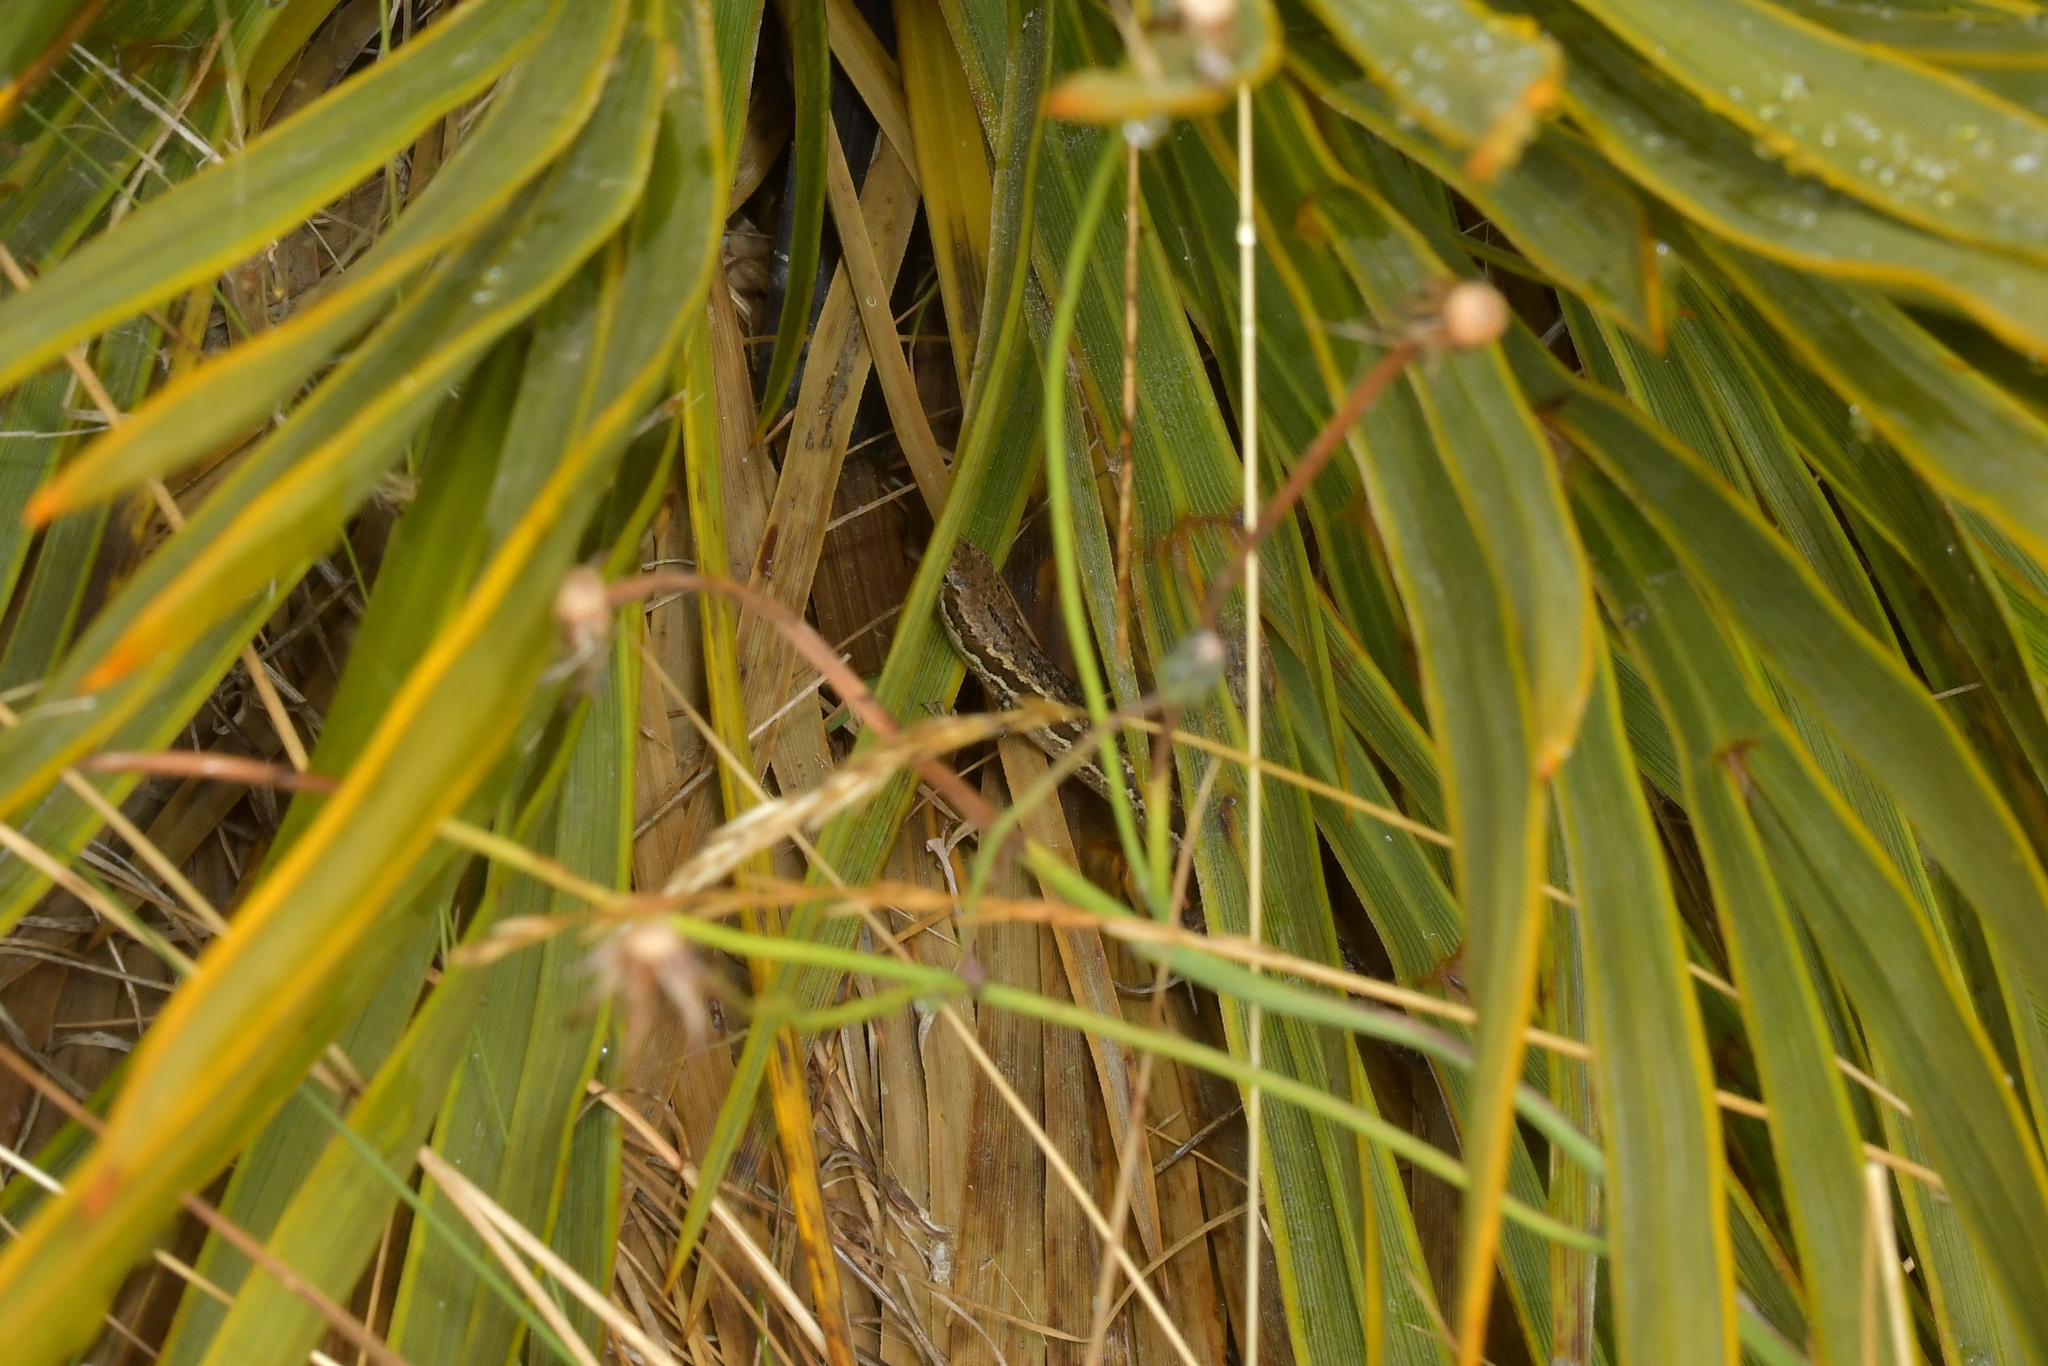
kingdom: Animalia
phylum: Chordata
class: Squamata
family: Scincidae
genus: Oligosoma
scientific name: Oligosoma maccanni
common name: Mccann’s skink
